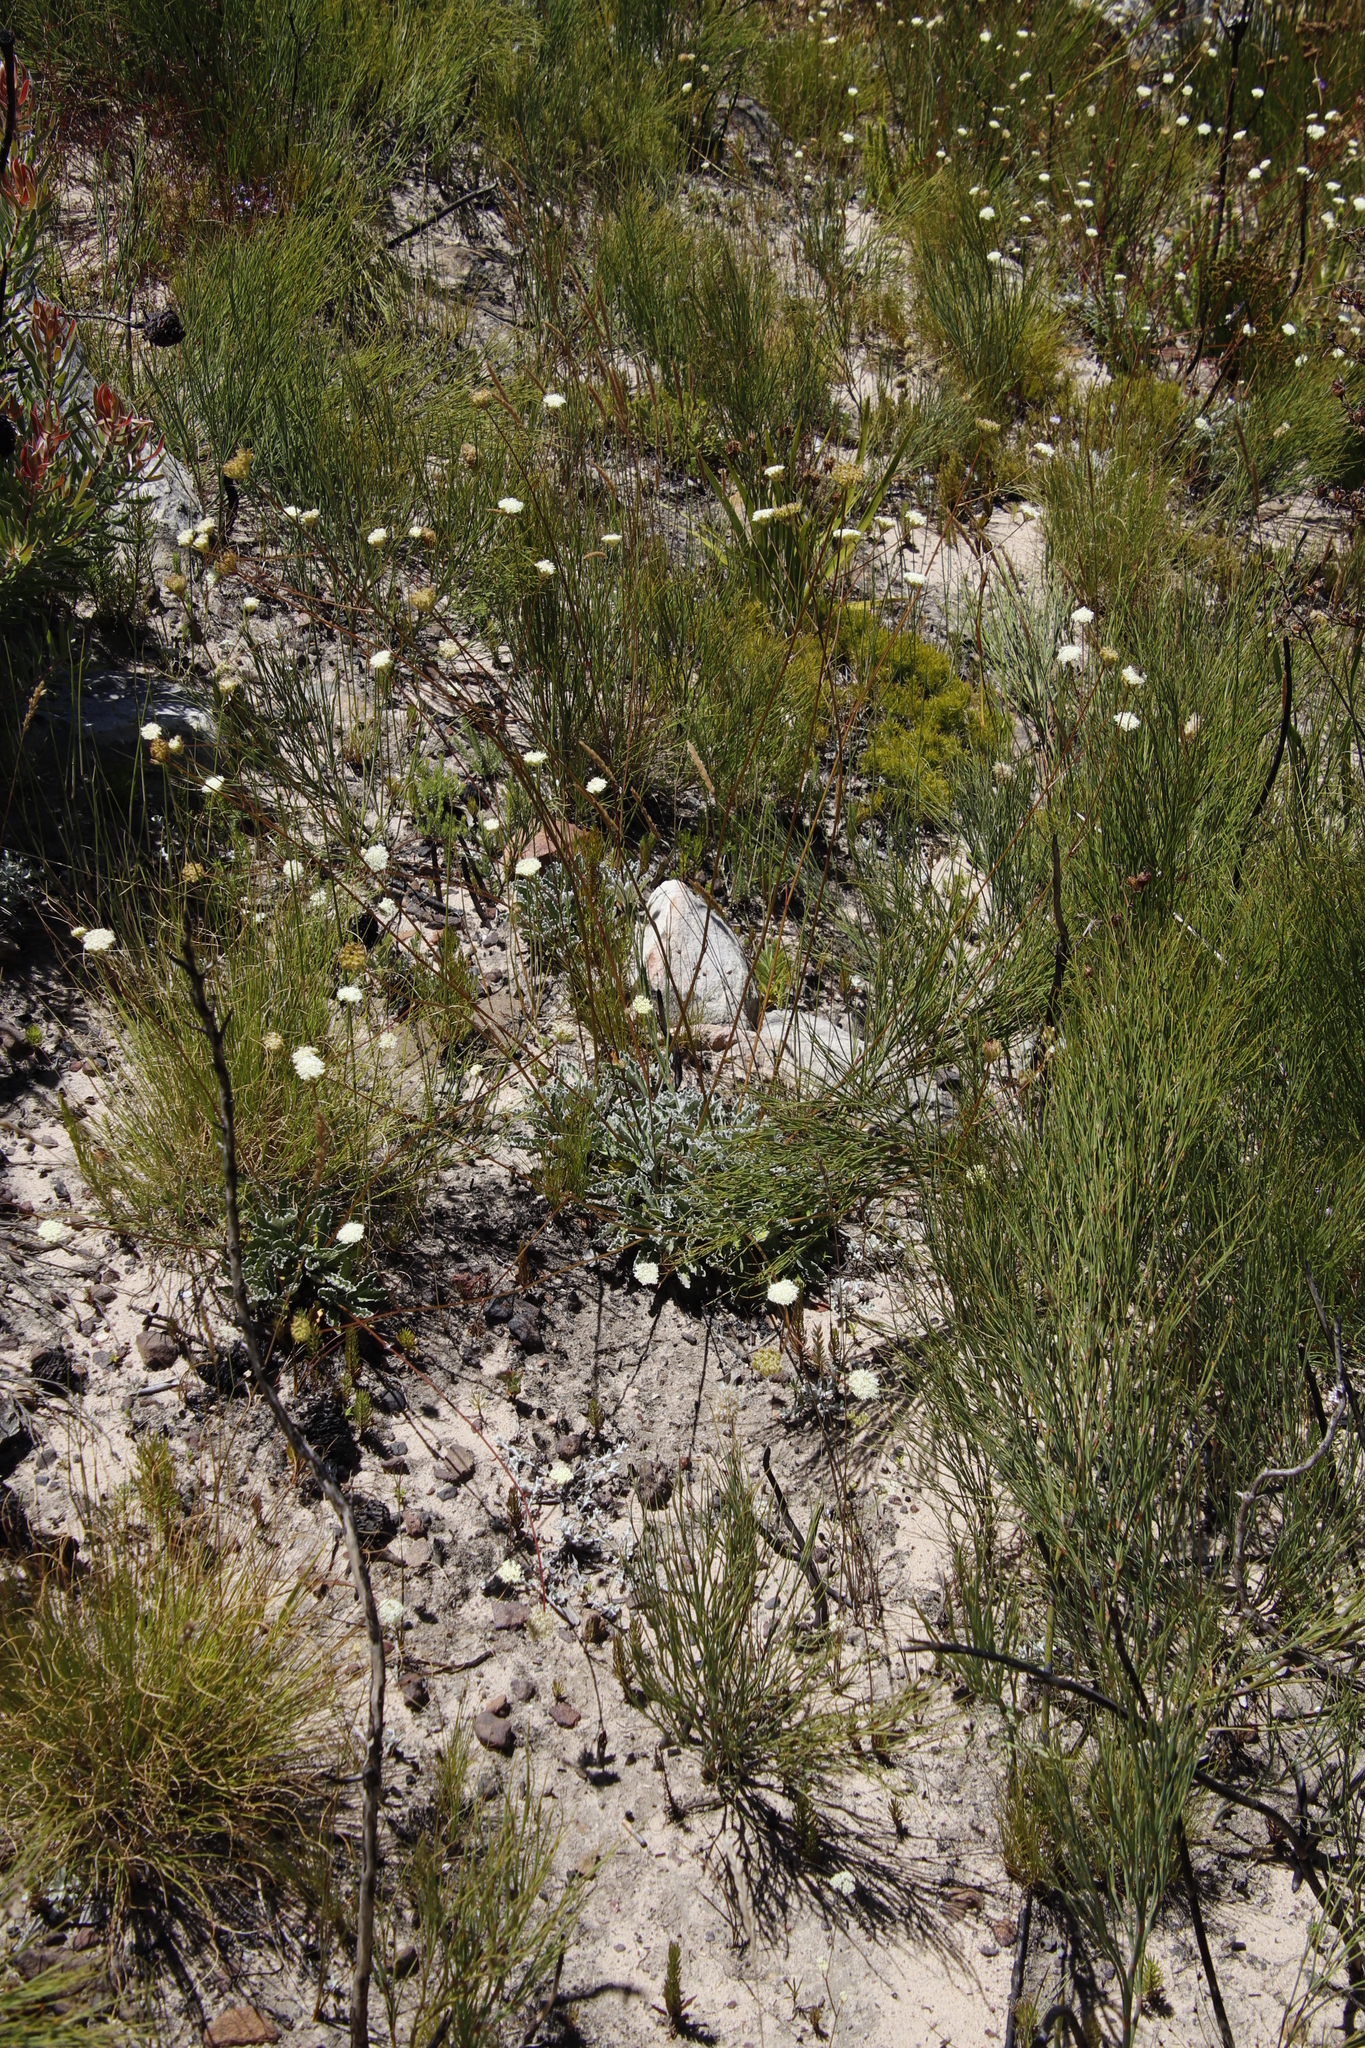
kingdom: Plantae
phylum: Tracheophyta
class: Magnoliopsida
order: Apiales
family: Apiaceae
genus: Hermas
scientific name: Hermas quercifolia
